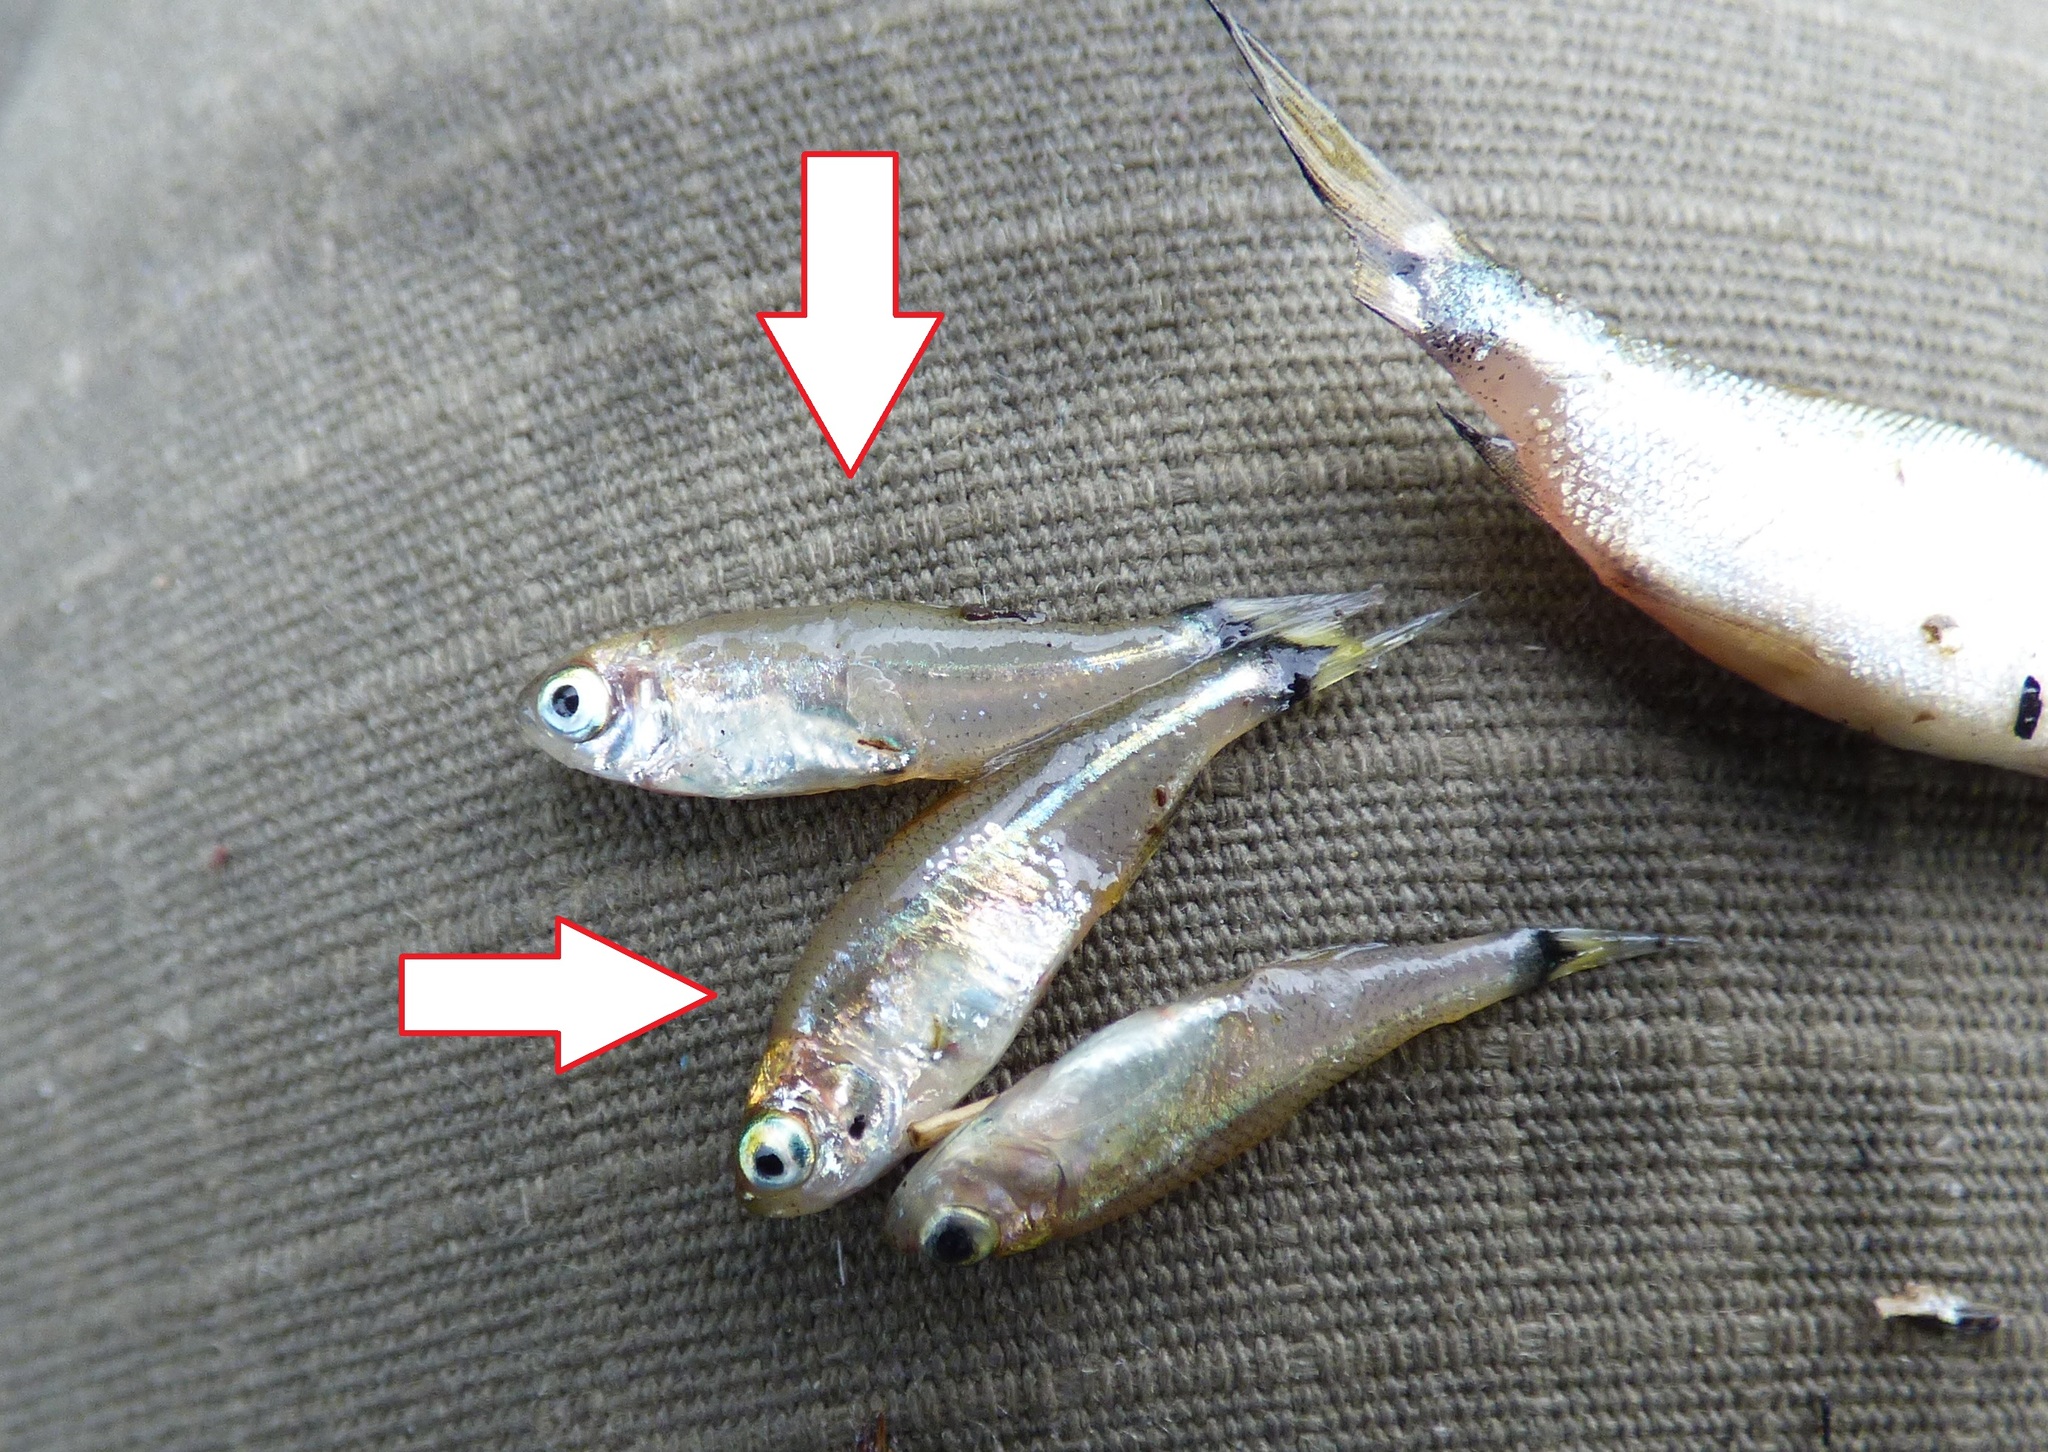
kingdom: Animalia
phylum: Chordata
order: Characiformes
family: Characidae
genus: Odontostilbe
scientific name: Odontostilbe pequira
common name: Tetra
